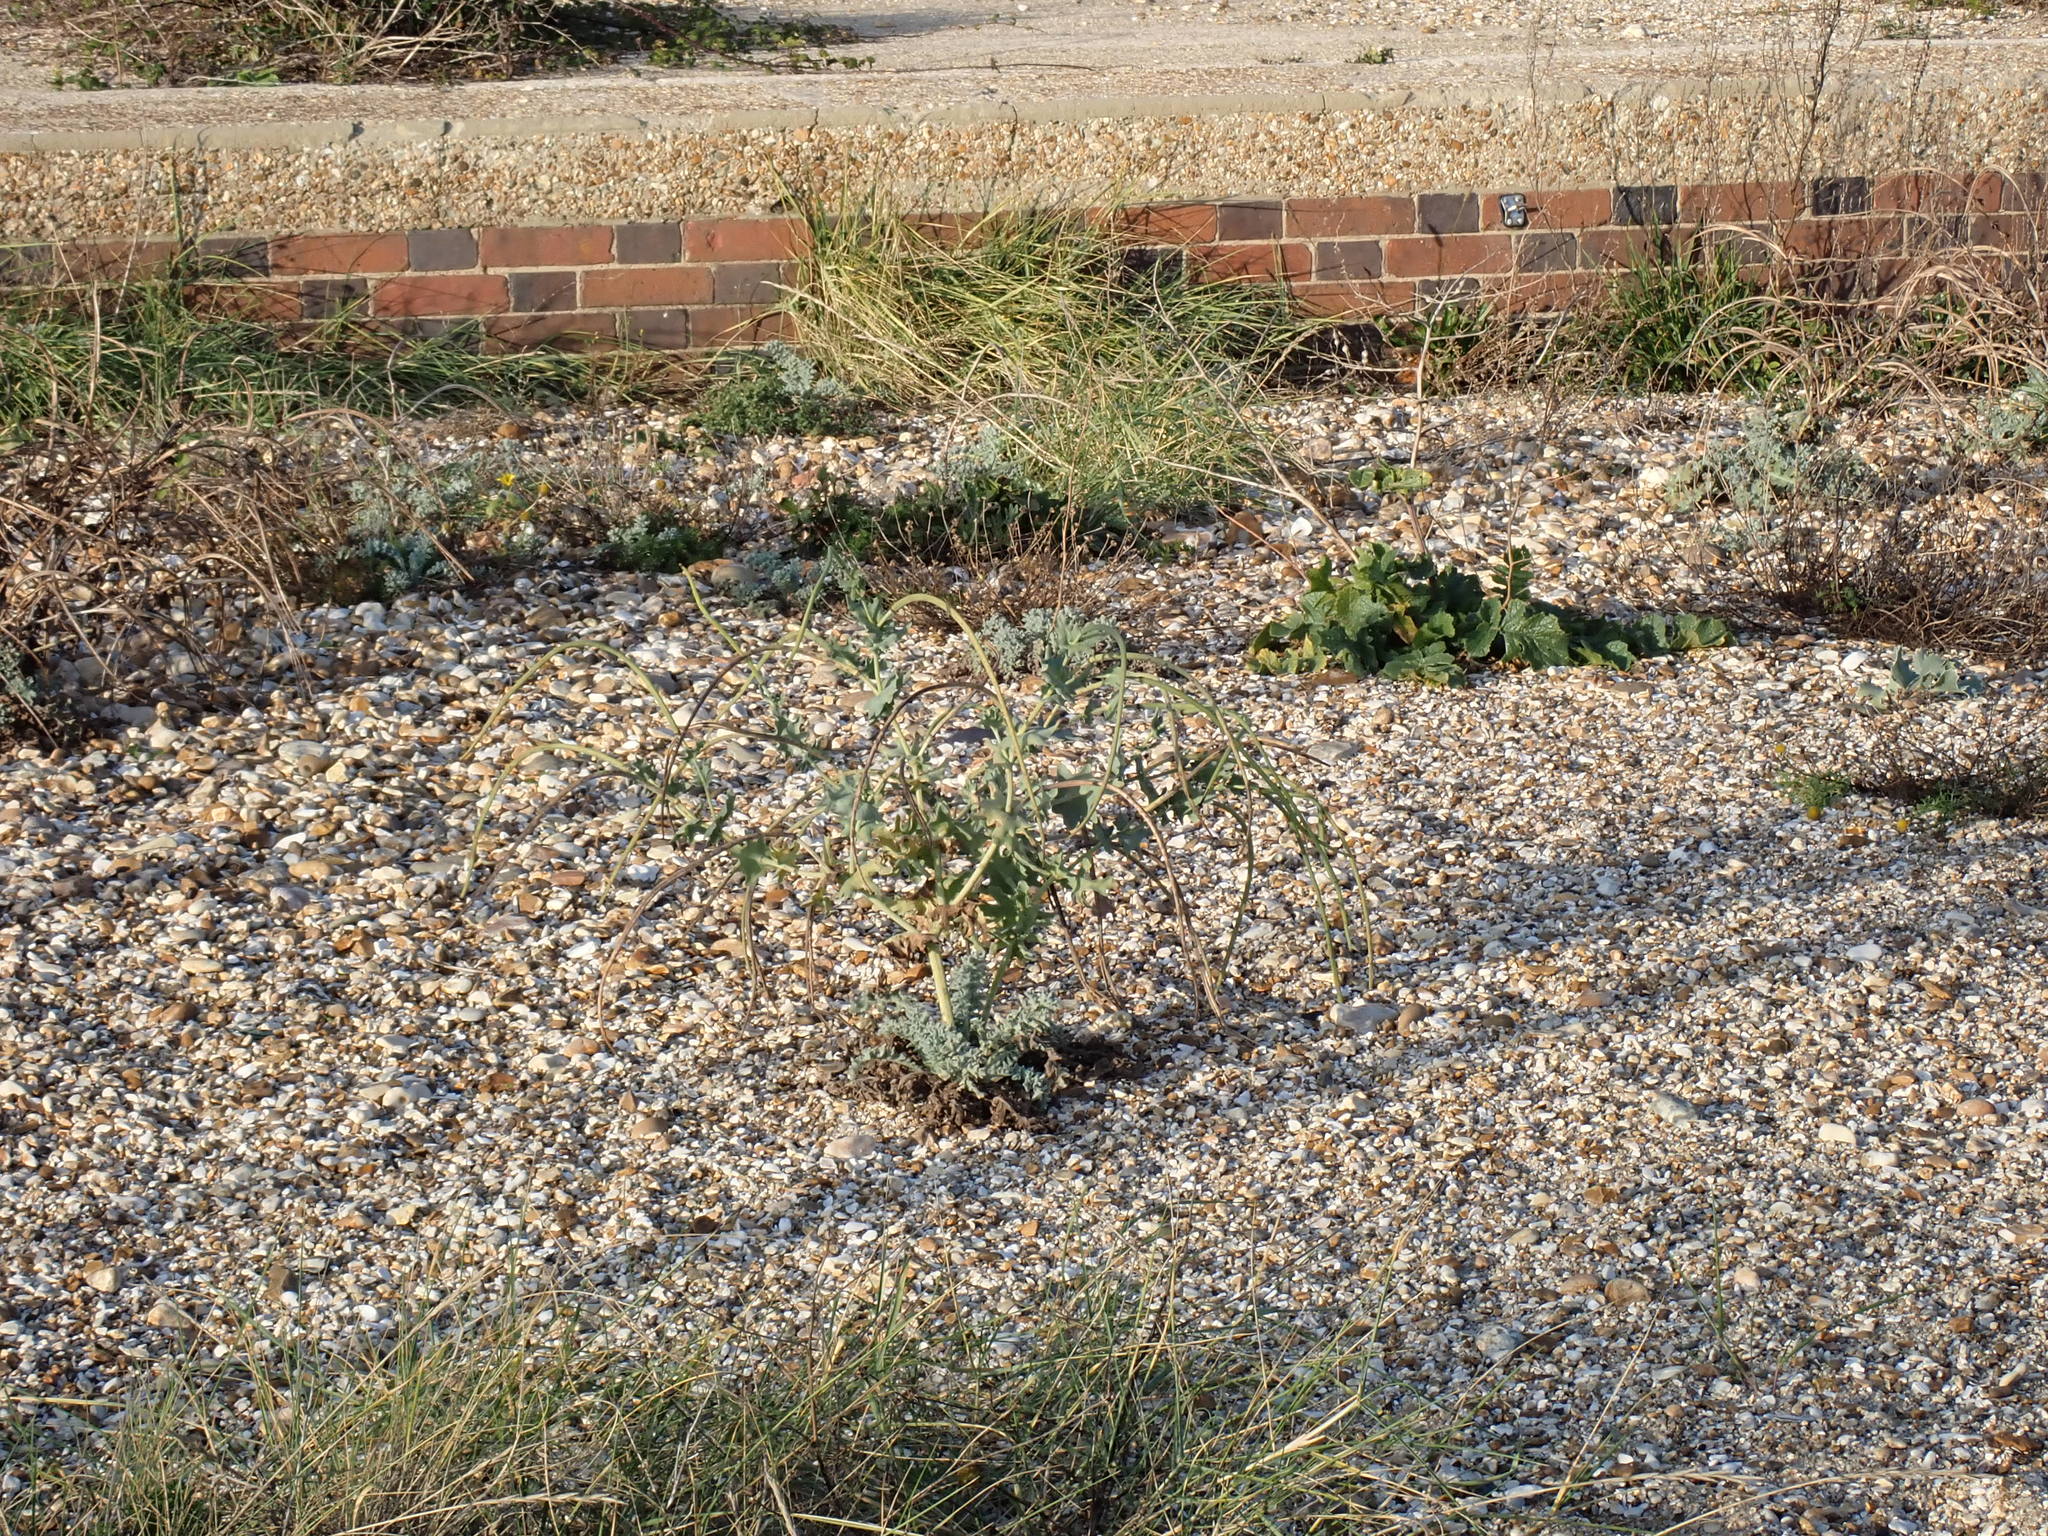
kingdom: Plantae
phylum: Tracheophyta
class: Magnoliopsida
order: Ranunculales
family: Papaveraceae
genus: Glaucium
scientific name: Glaucium flavum
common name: Yellow horned-poppy
